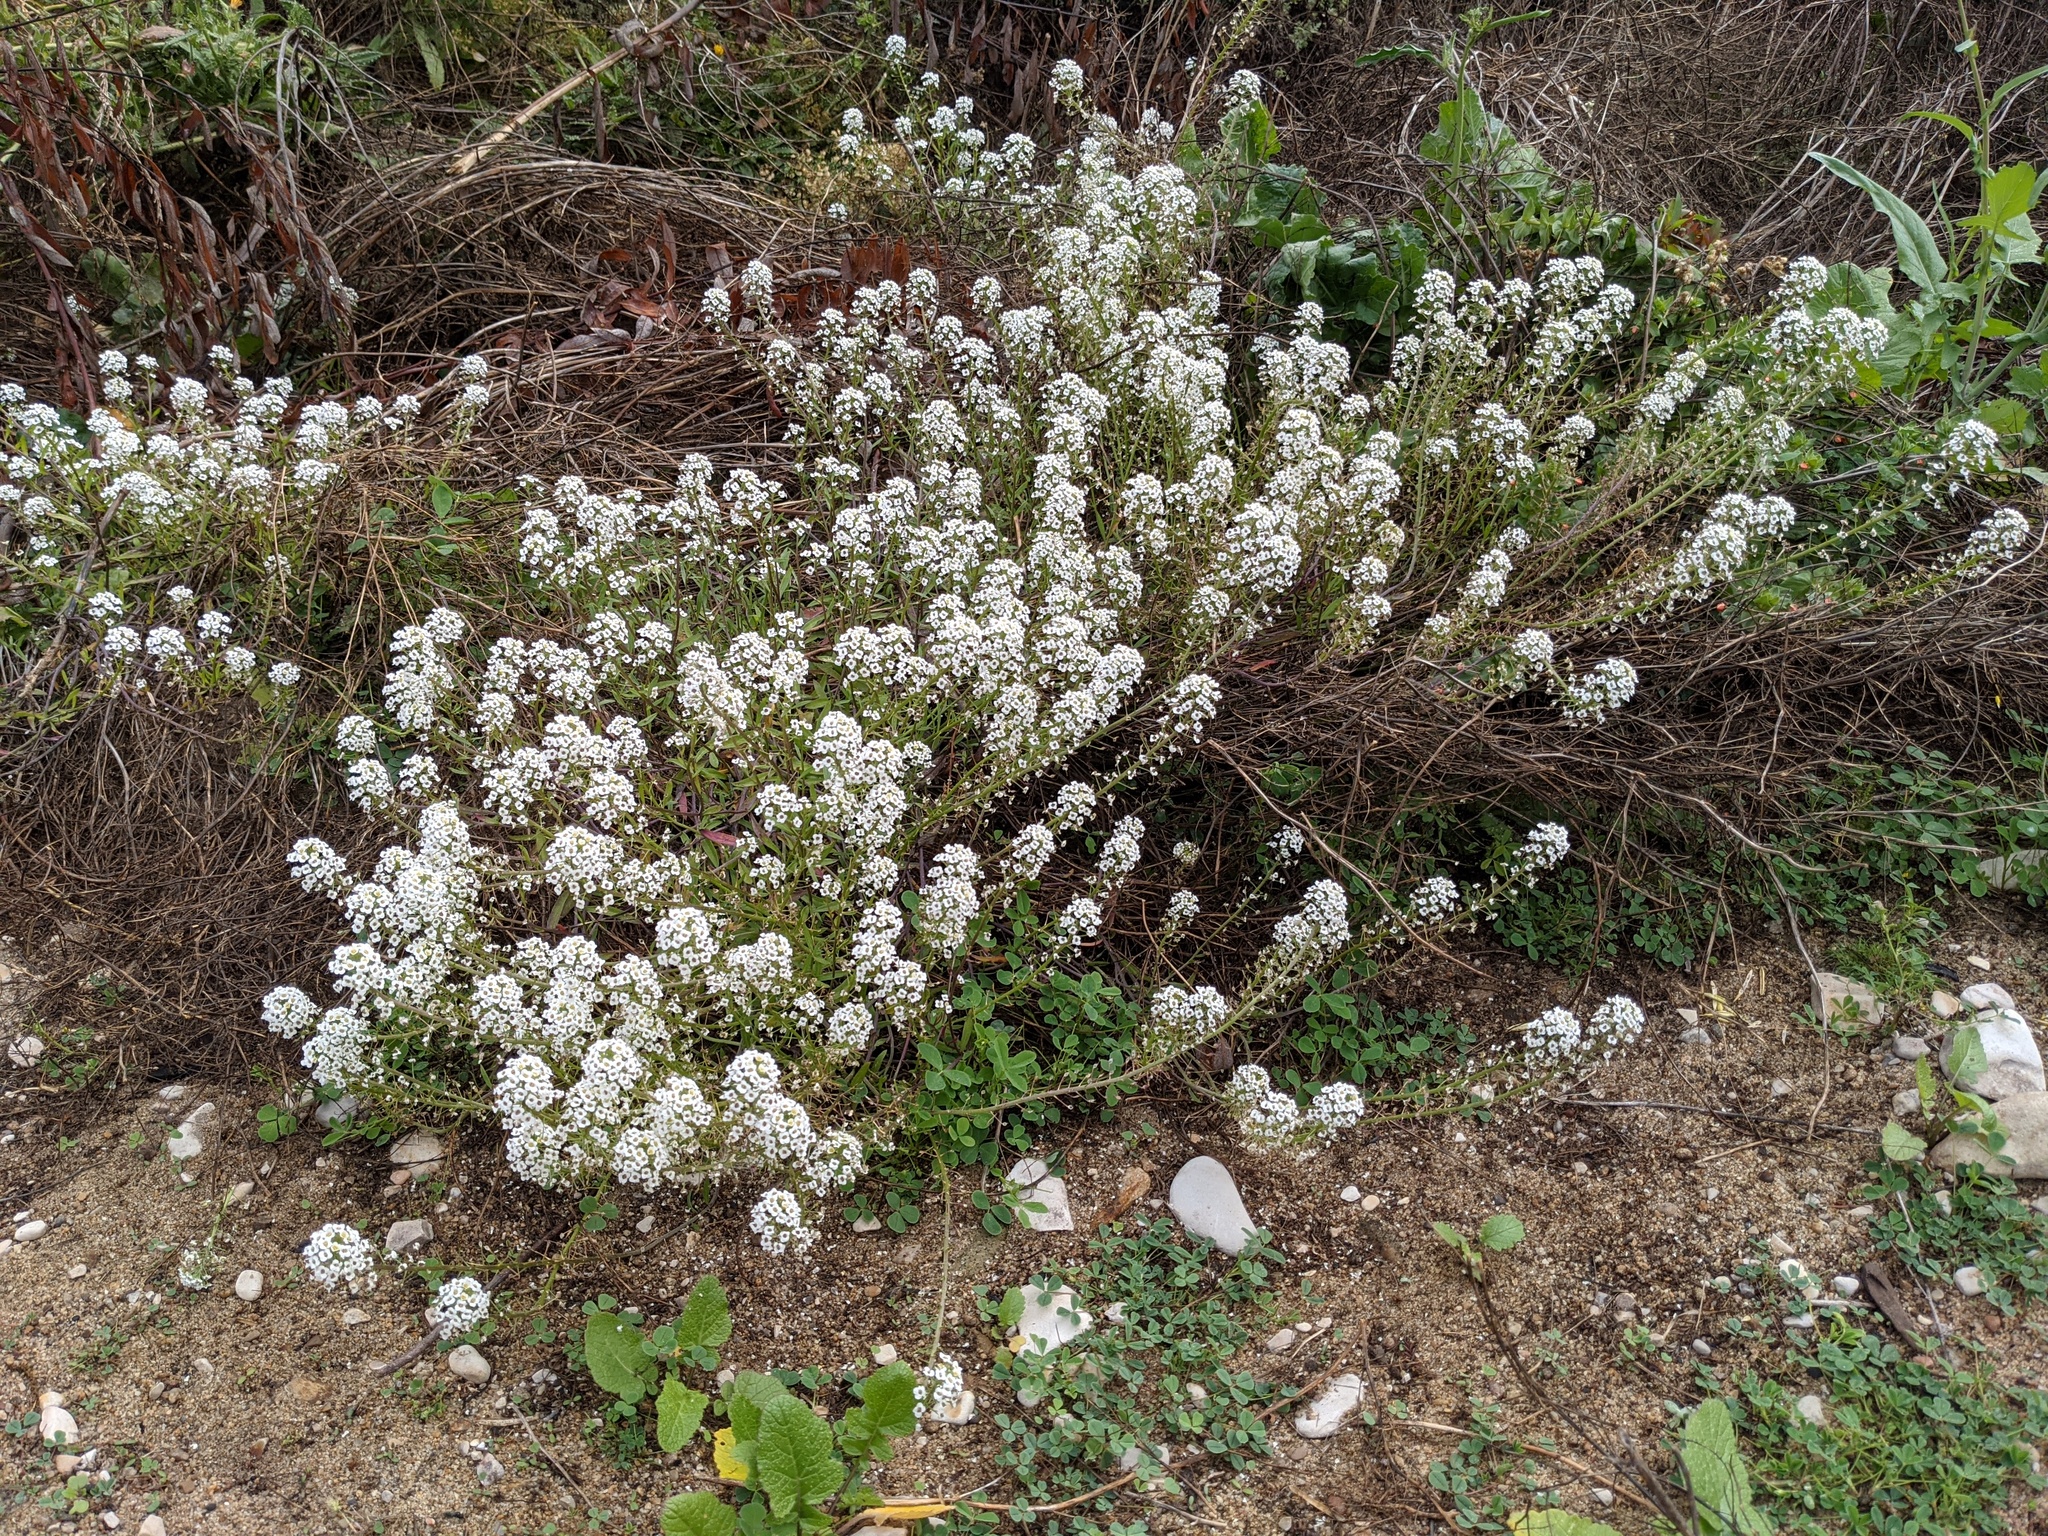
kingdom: Plantae
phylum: Tracheophyta
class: Magnoliopsida
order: Brassicales
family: Brassicaceae
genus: Lobularia
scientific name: Lobularia maritima
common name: Sweet alison
